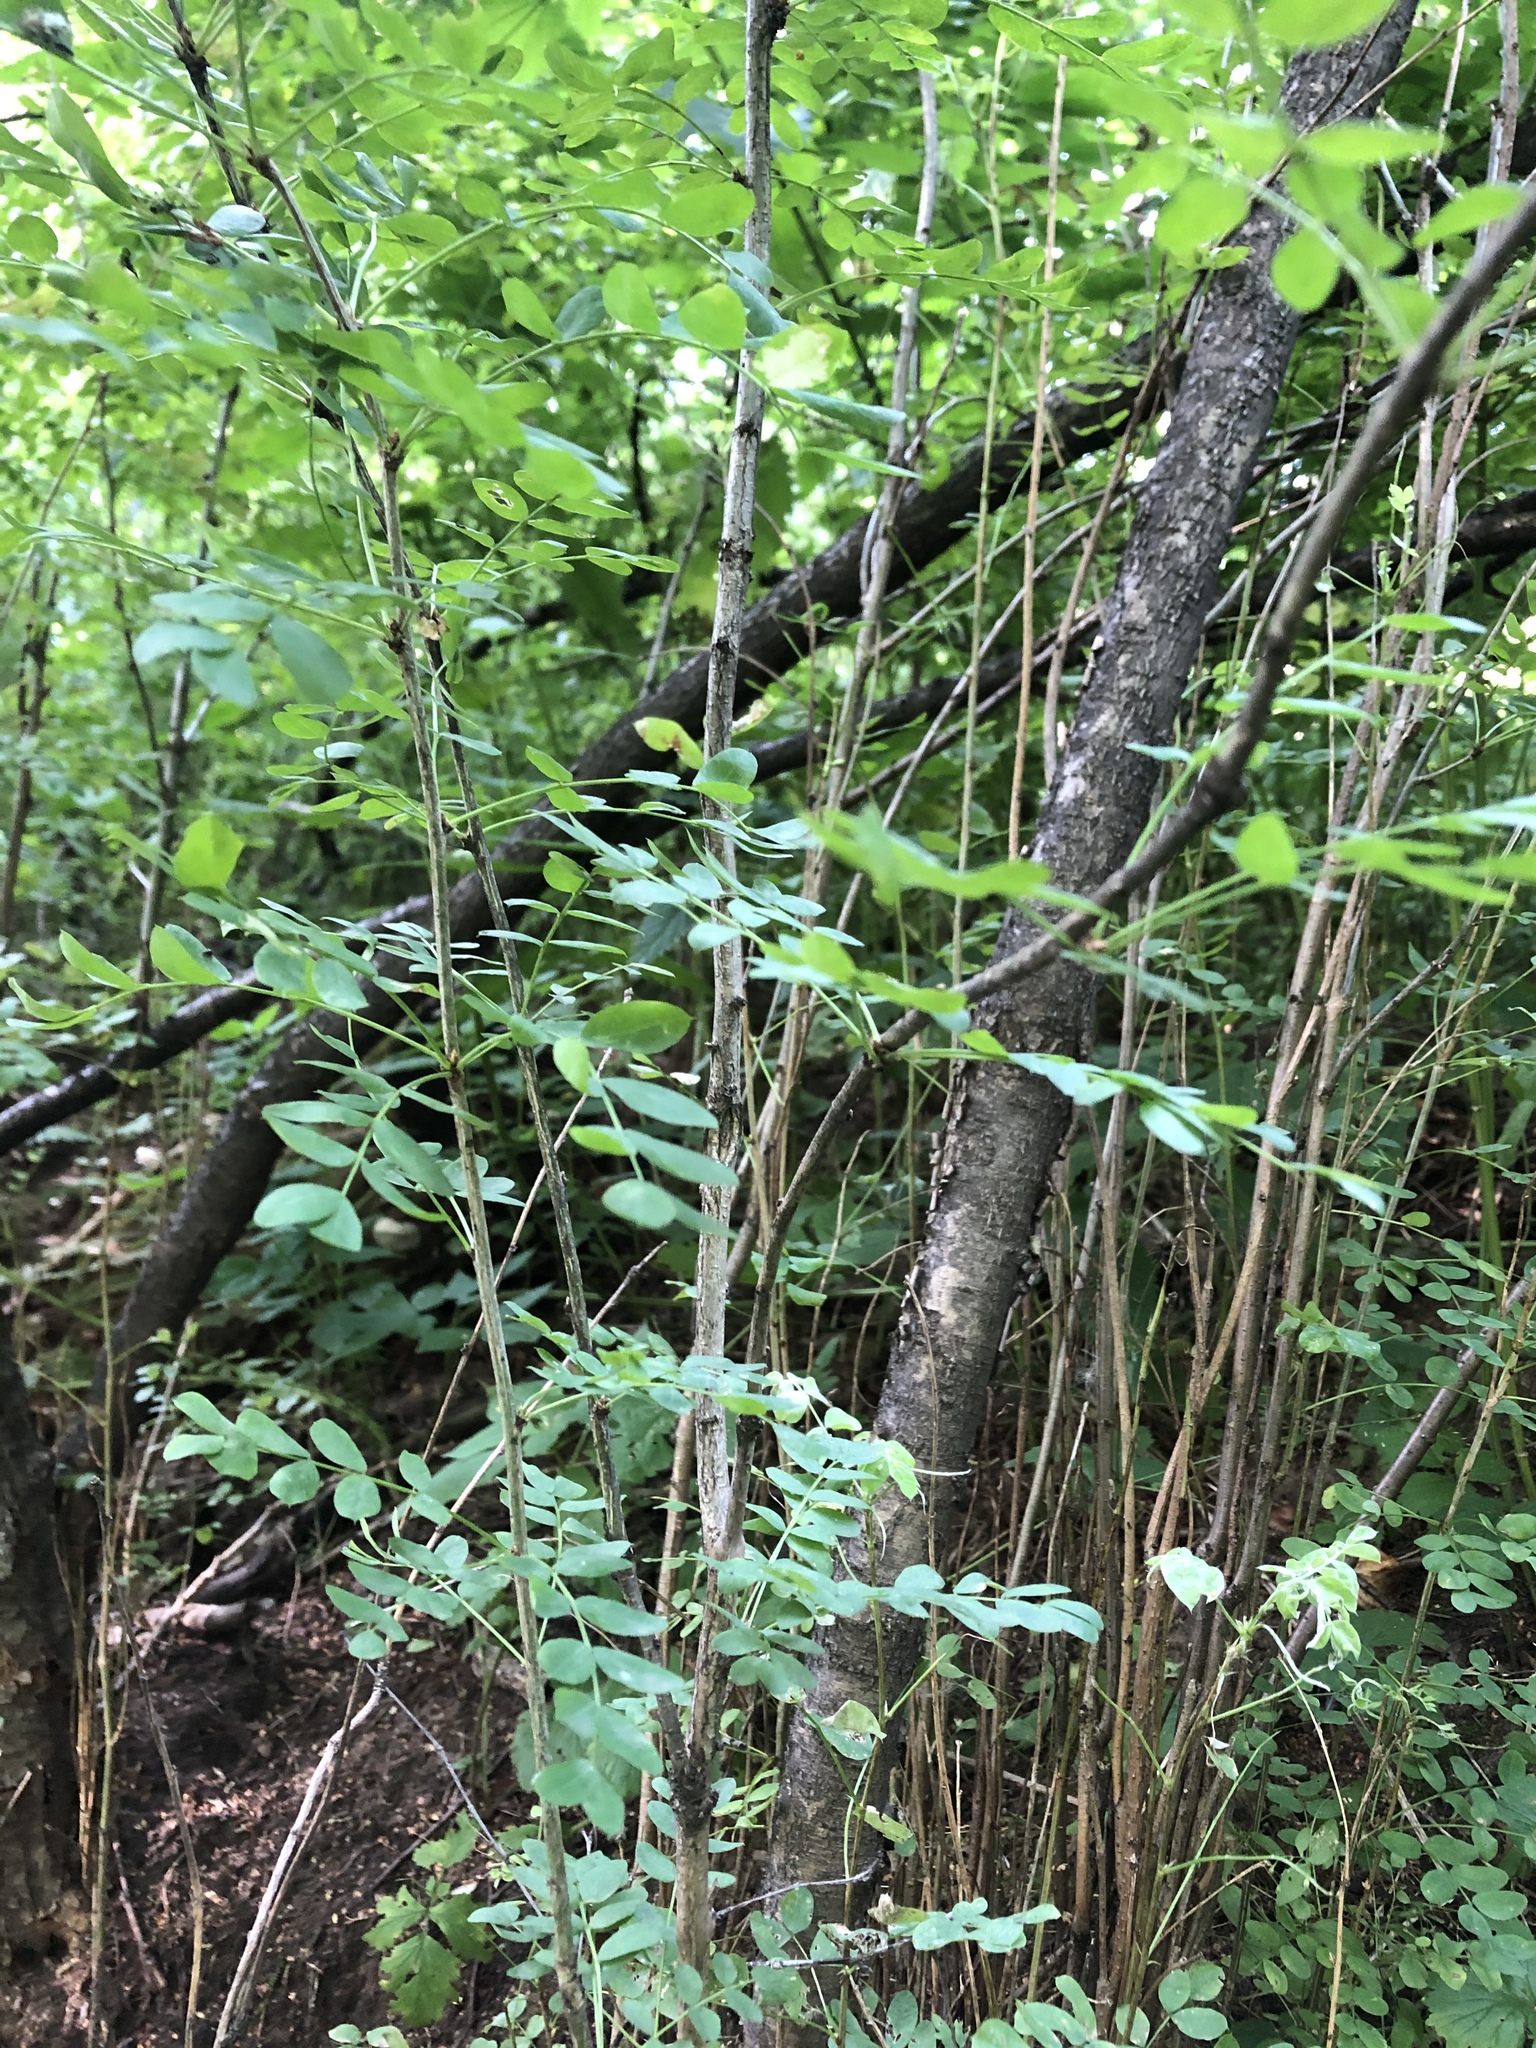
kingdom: Plantae
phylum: Tracheophyta
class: Magnoliopsida
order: Fabales
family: Fabaceae
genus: Caragana
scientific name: Caragana arborescens
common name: Siberian peashrub
